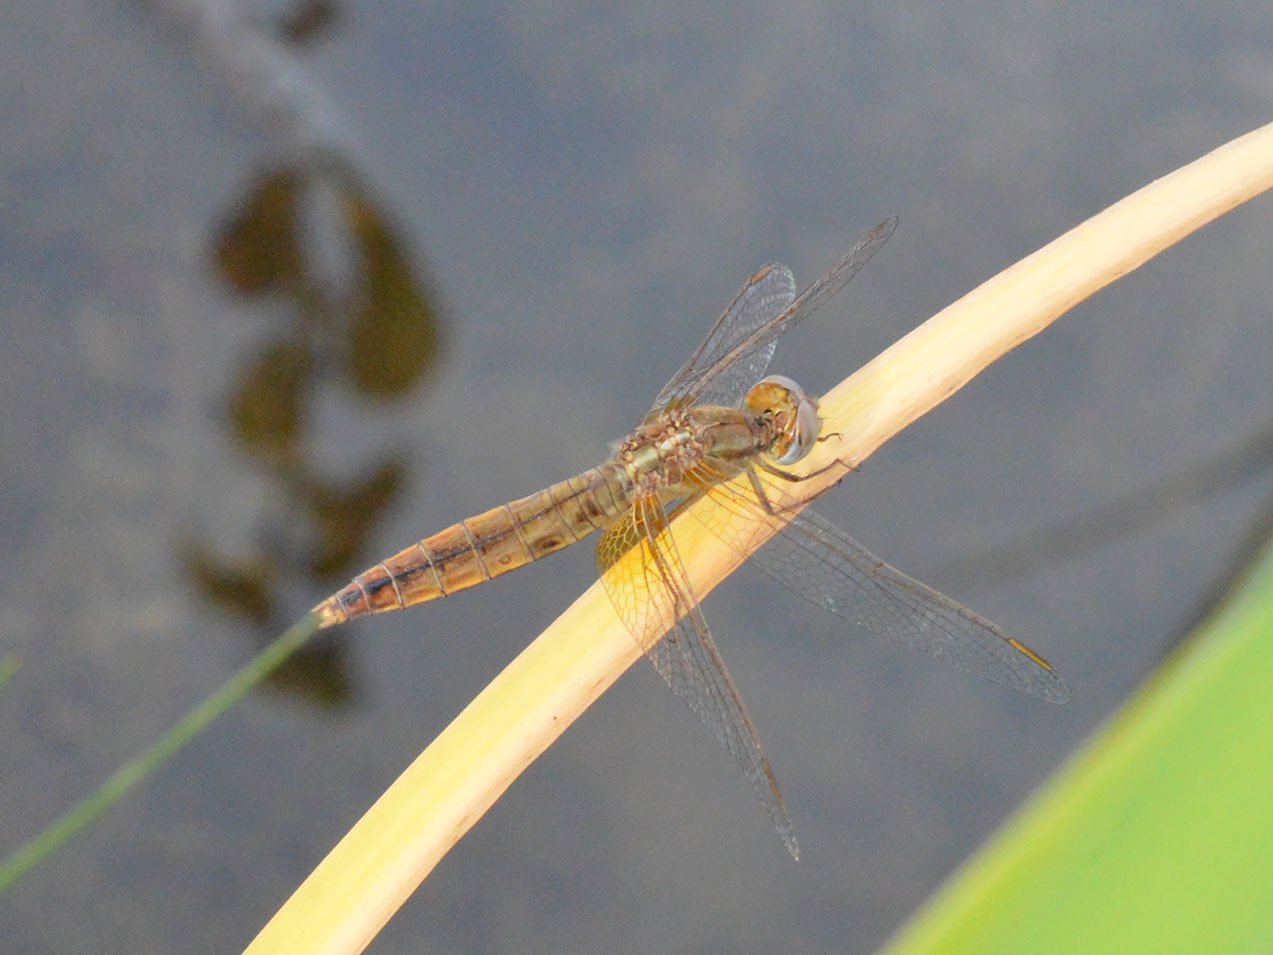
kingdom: Animalia
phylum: Arthropoda
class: Insecta
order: Odonata
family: Libellulidae
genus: Crocothemis
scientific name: Crocothemis erythraea
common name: Scarlet dragonfly
